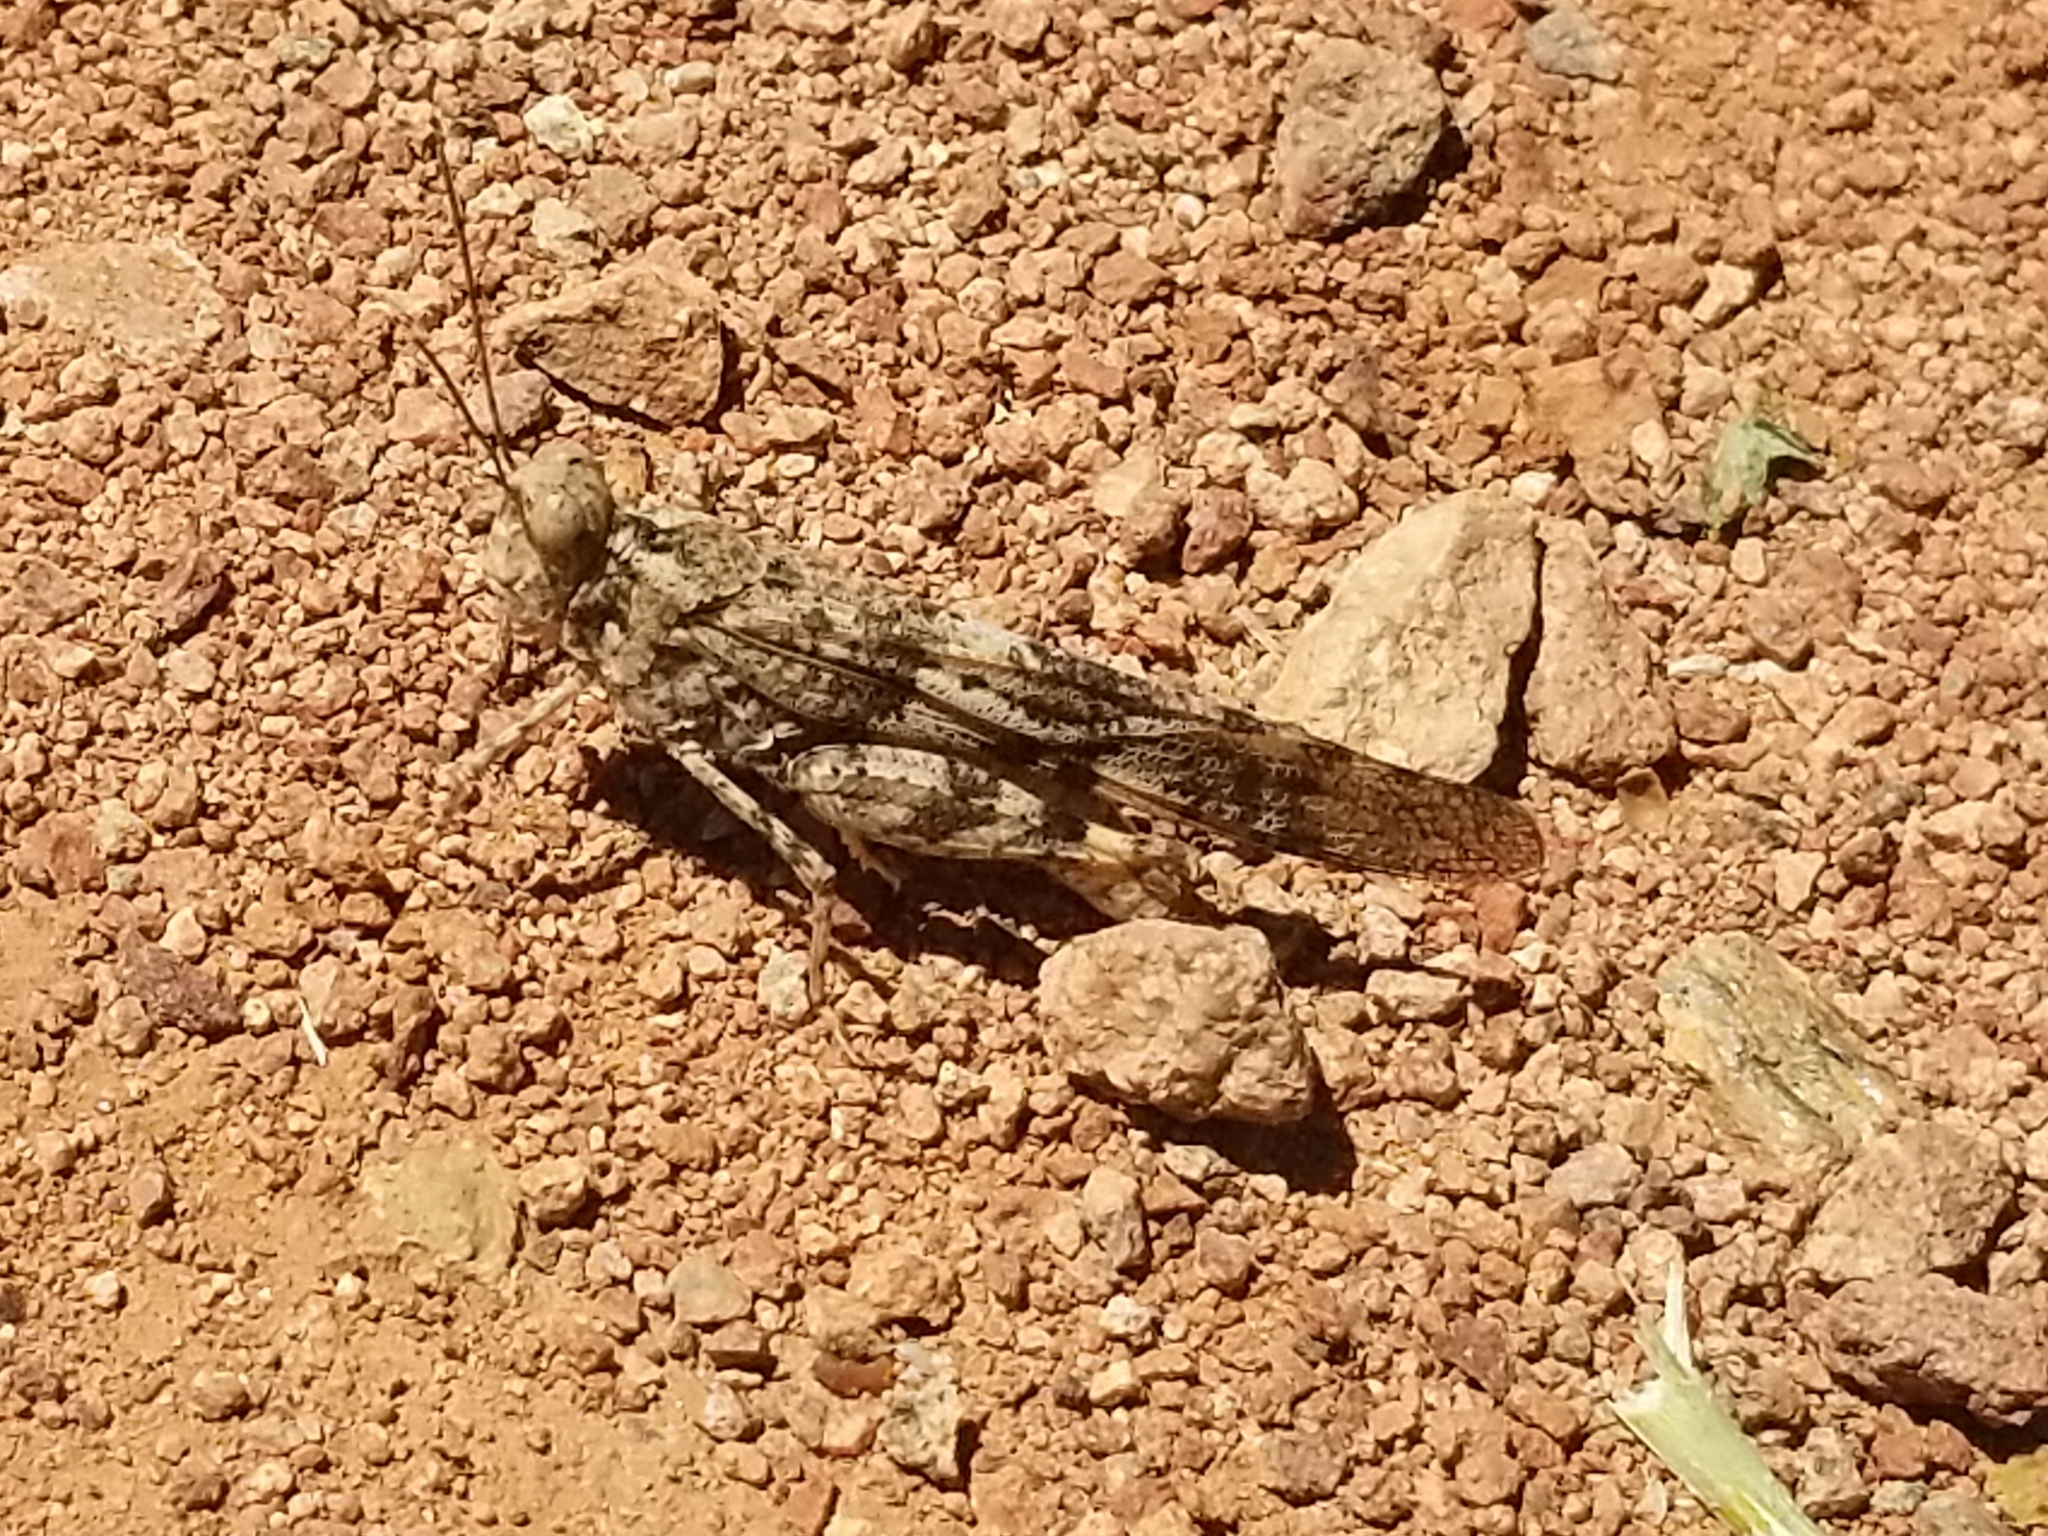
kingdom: Animalia
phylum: Arthropoda
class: Insecta
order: Orthoptera
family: Acrididae
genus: Trimerotropis
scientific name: Trimerotropis pallidipennis
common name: Pallid-winged grasshopper
